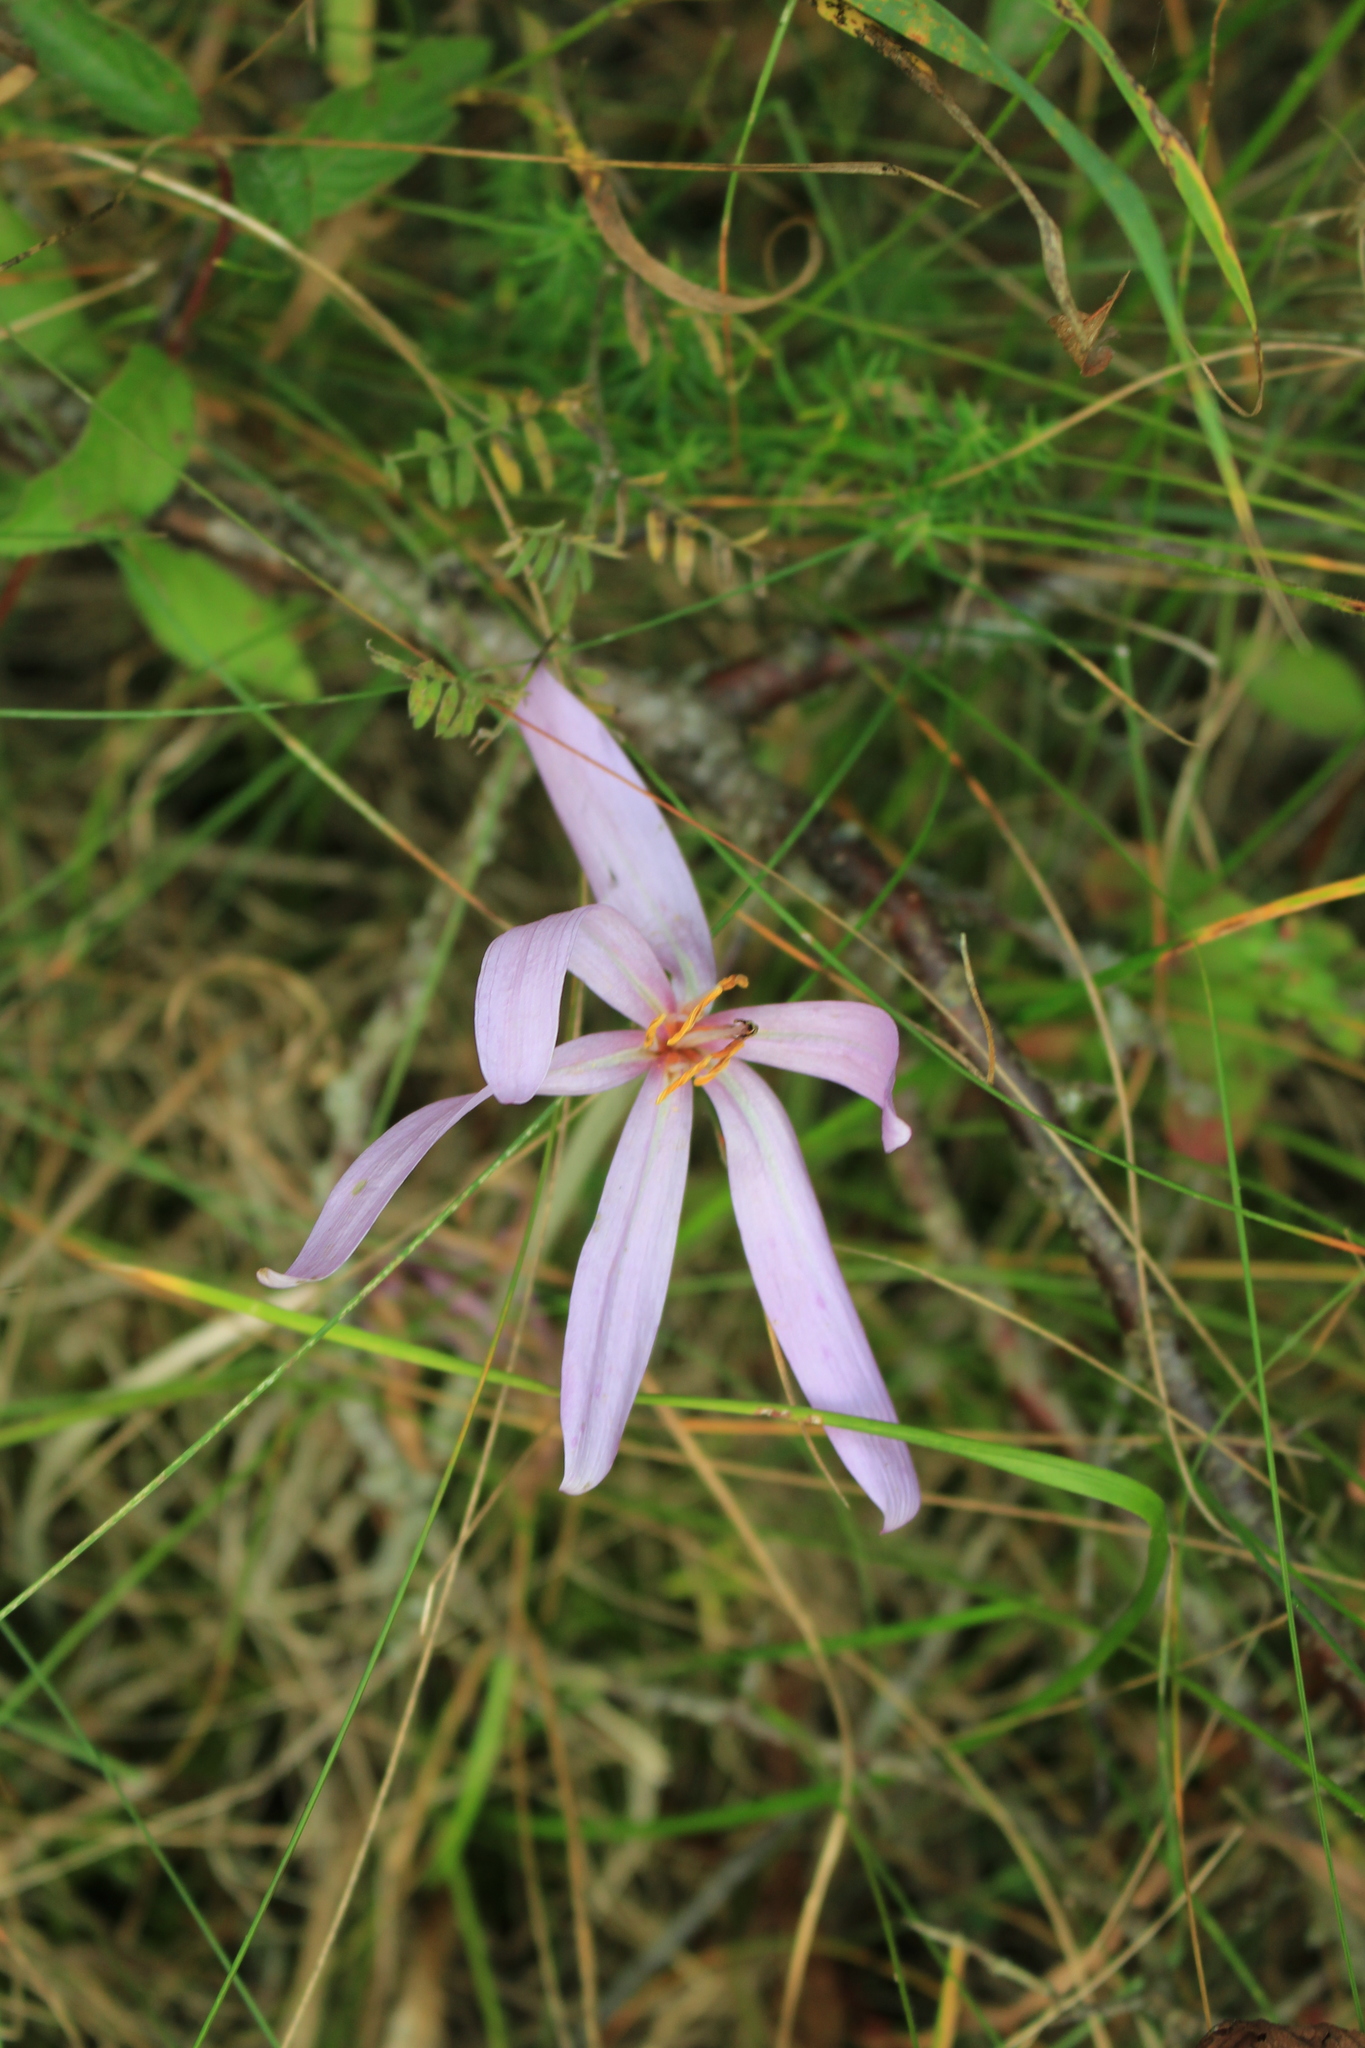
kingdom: Plantae
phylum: Tracheophyta
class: Liliopsida
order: Liliales
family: Colchicaceae
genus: Colchicum
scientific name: Colchicum autumnale
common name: Autumn crocus
